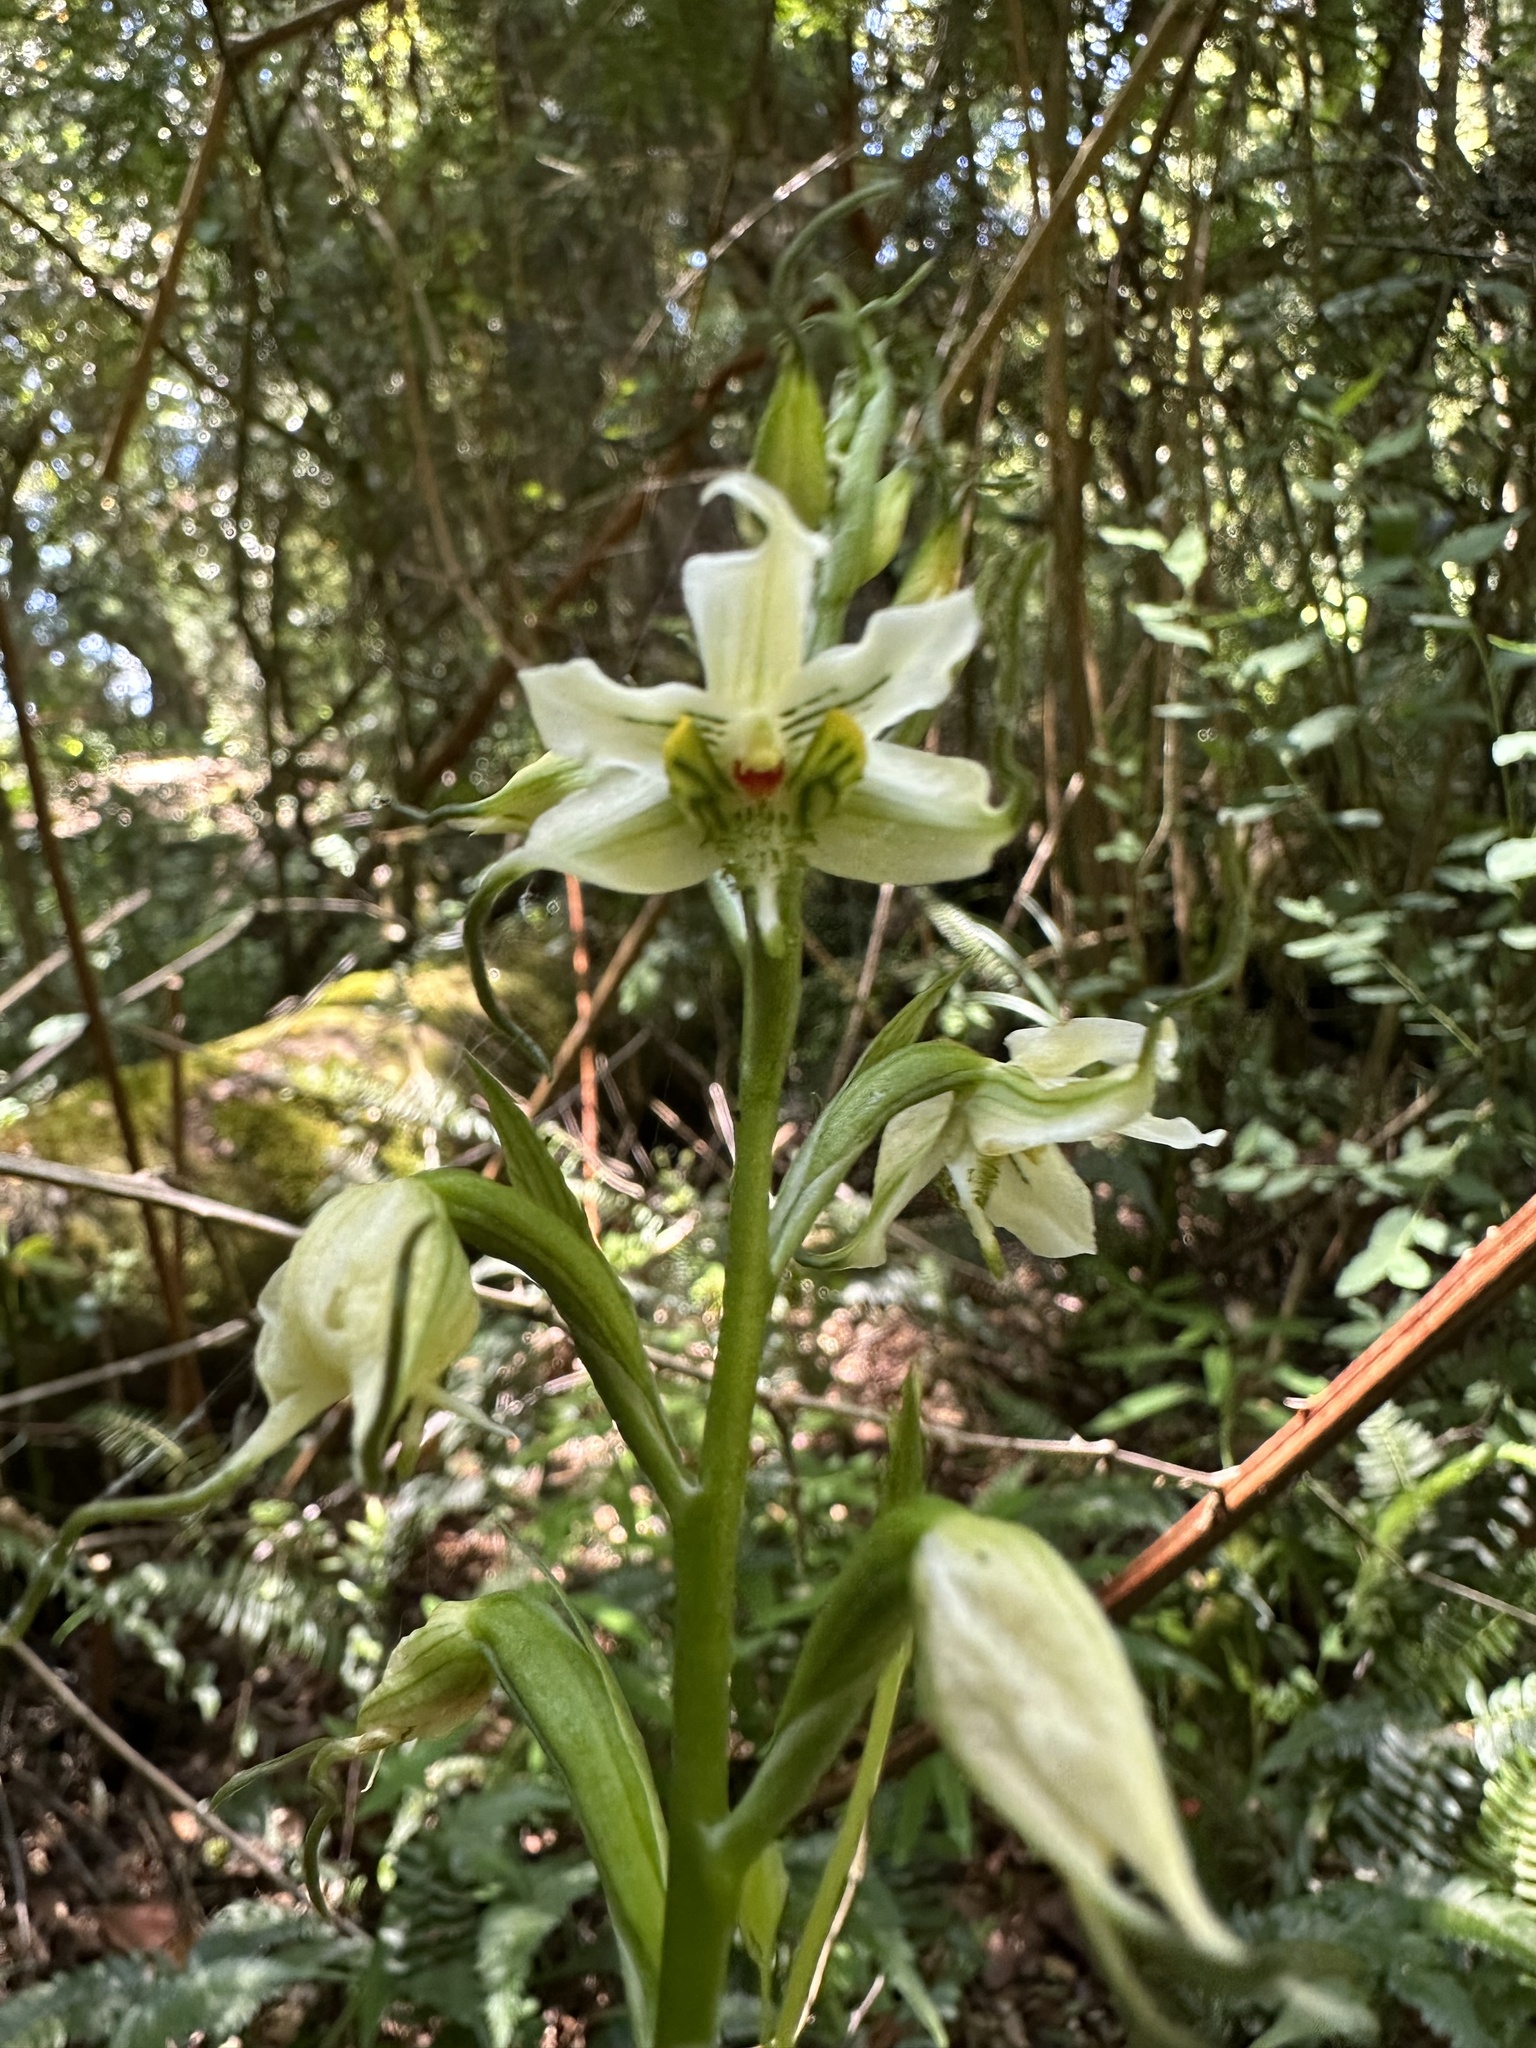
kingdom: Plantae
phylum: Tracheophyta
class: Liliopsida
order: Asparagales
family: Orchidaceae
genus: Gavilea
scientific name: Gavilea araucana
